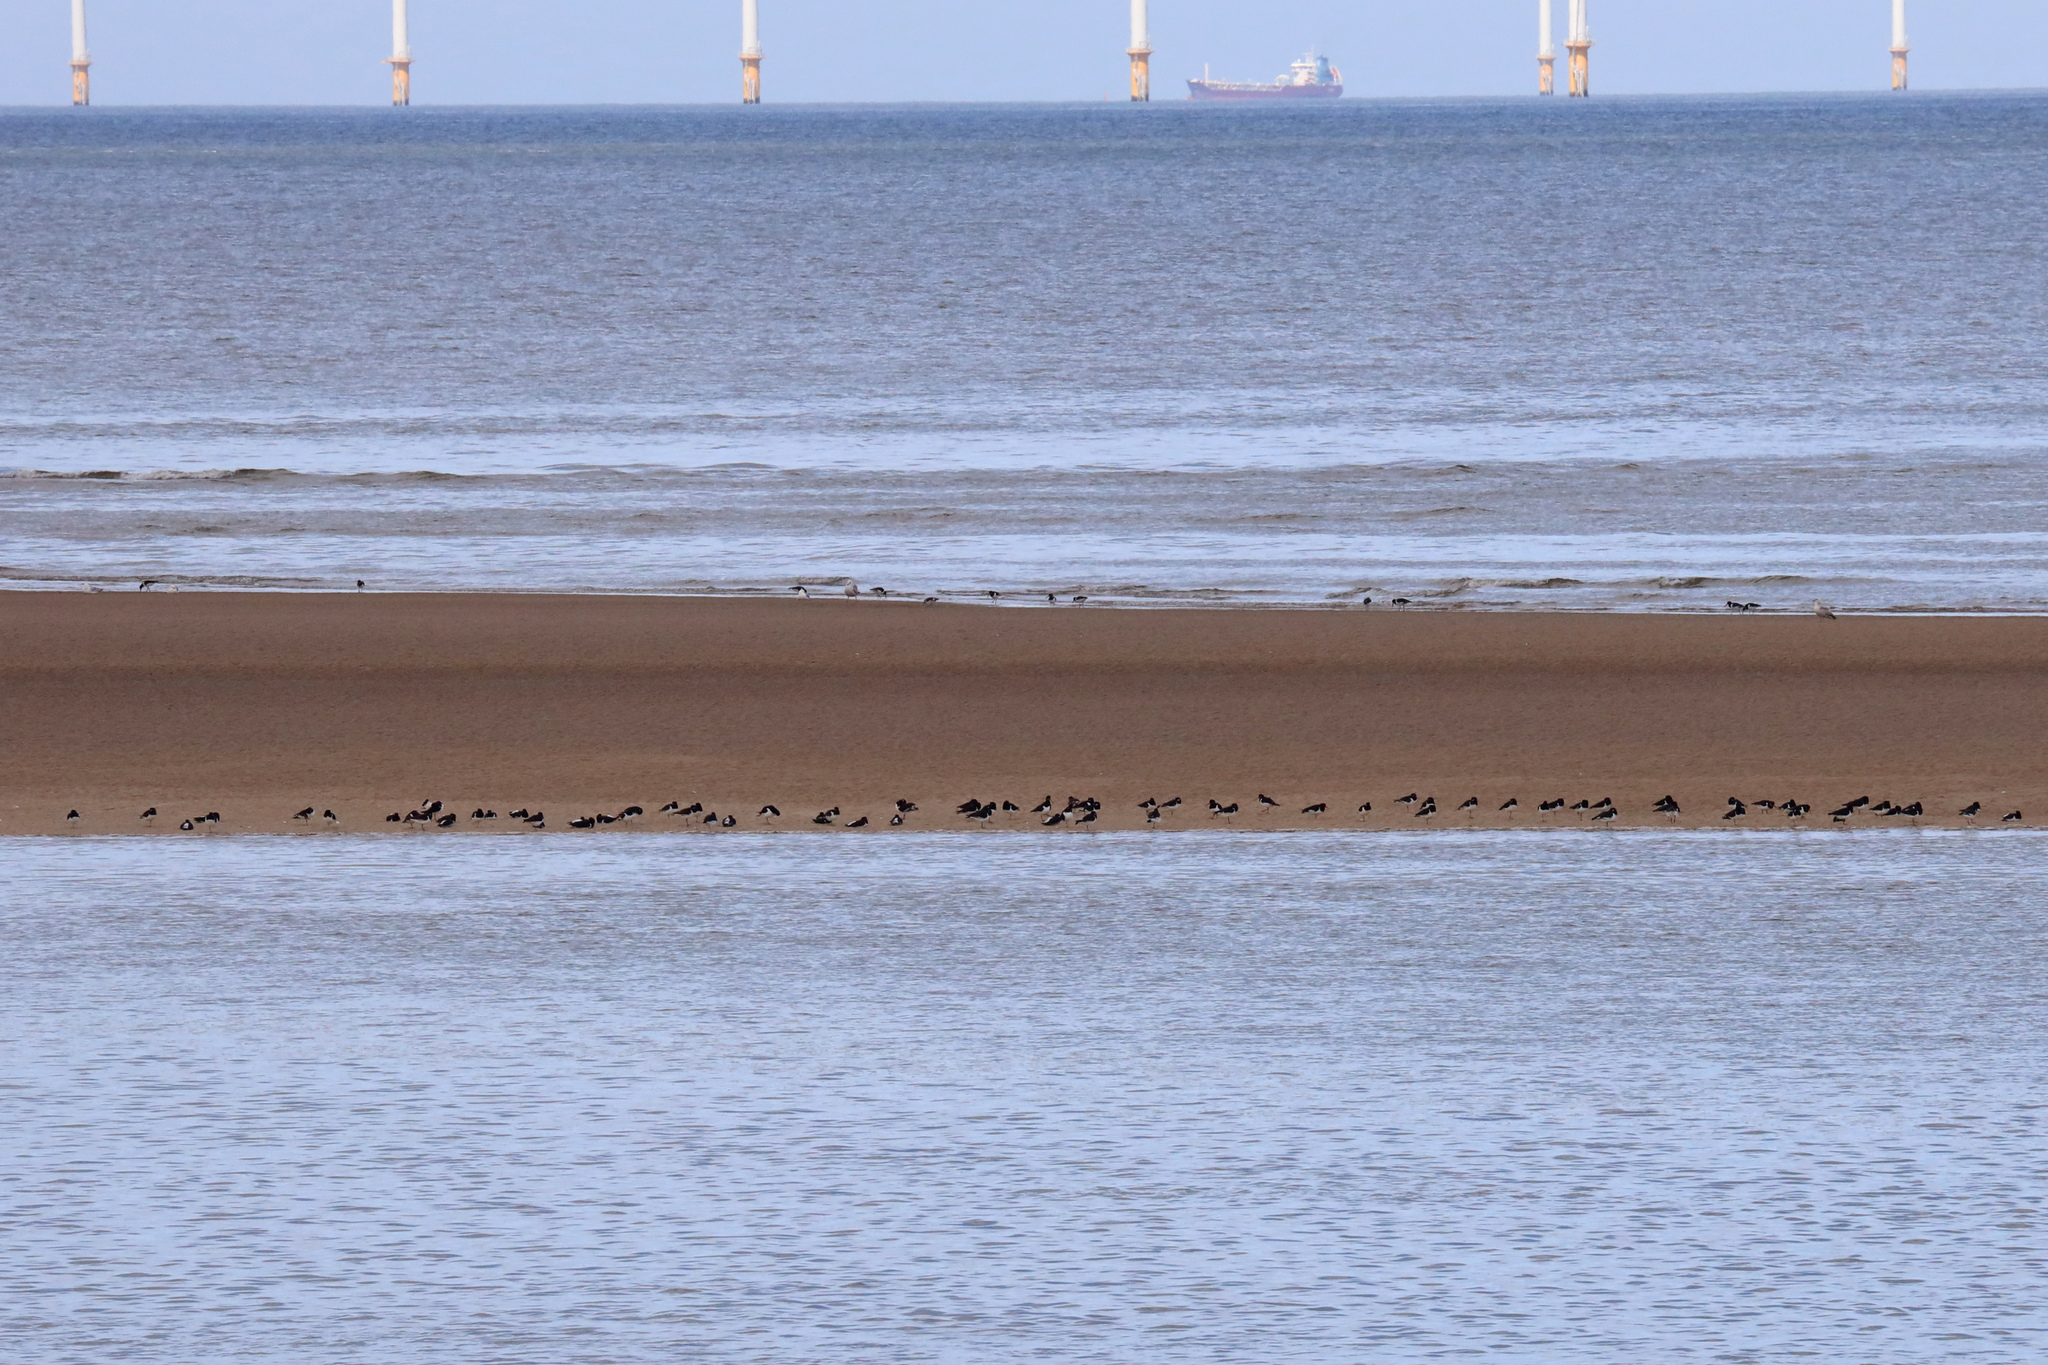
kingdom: Animalia
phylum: Chordata
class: Aves
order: Charadriiformes
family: Haematopodidae
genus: Haematopus
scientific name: Haematopus ostralegus
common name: Eurasian oystercatcher
